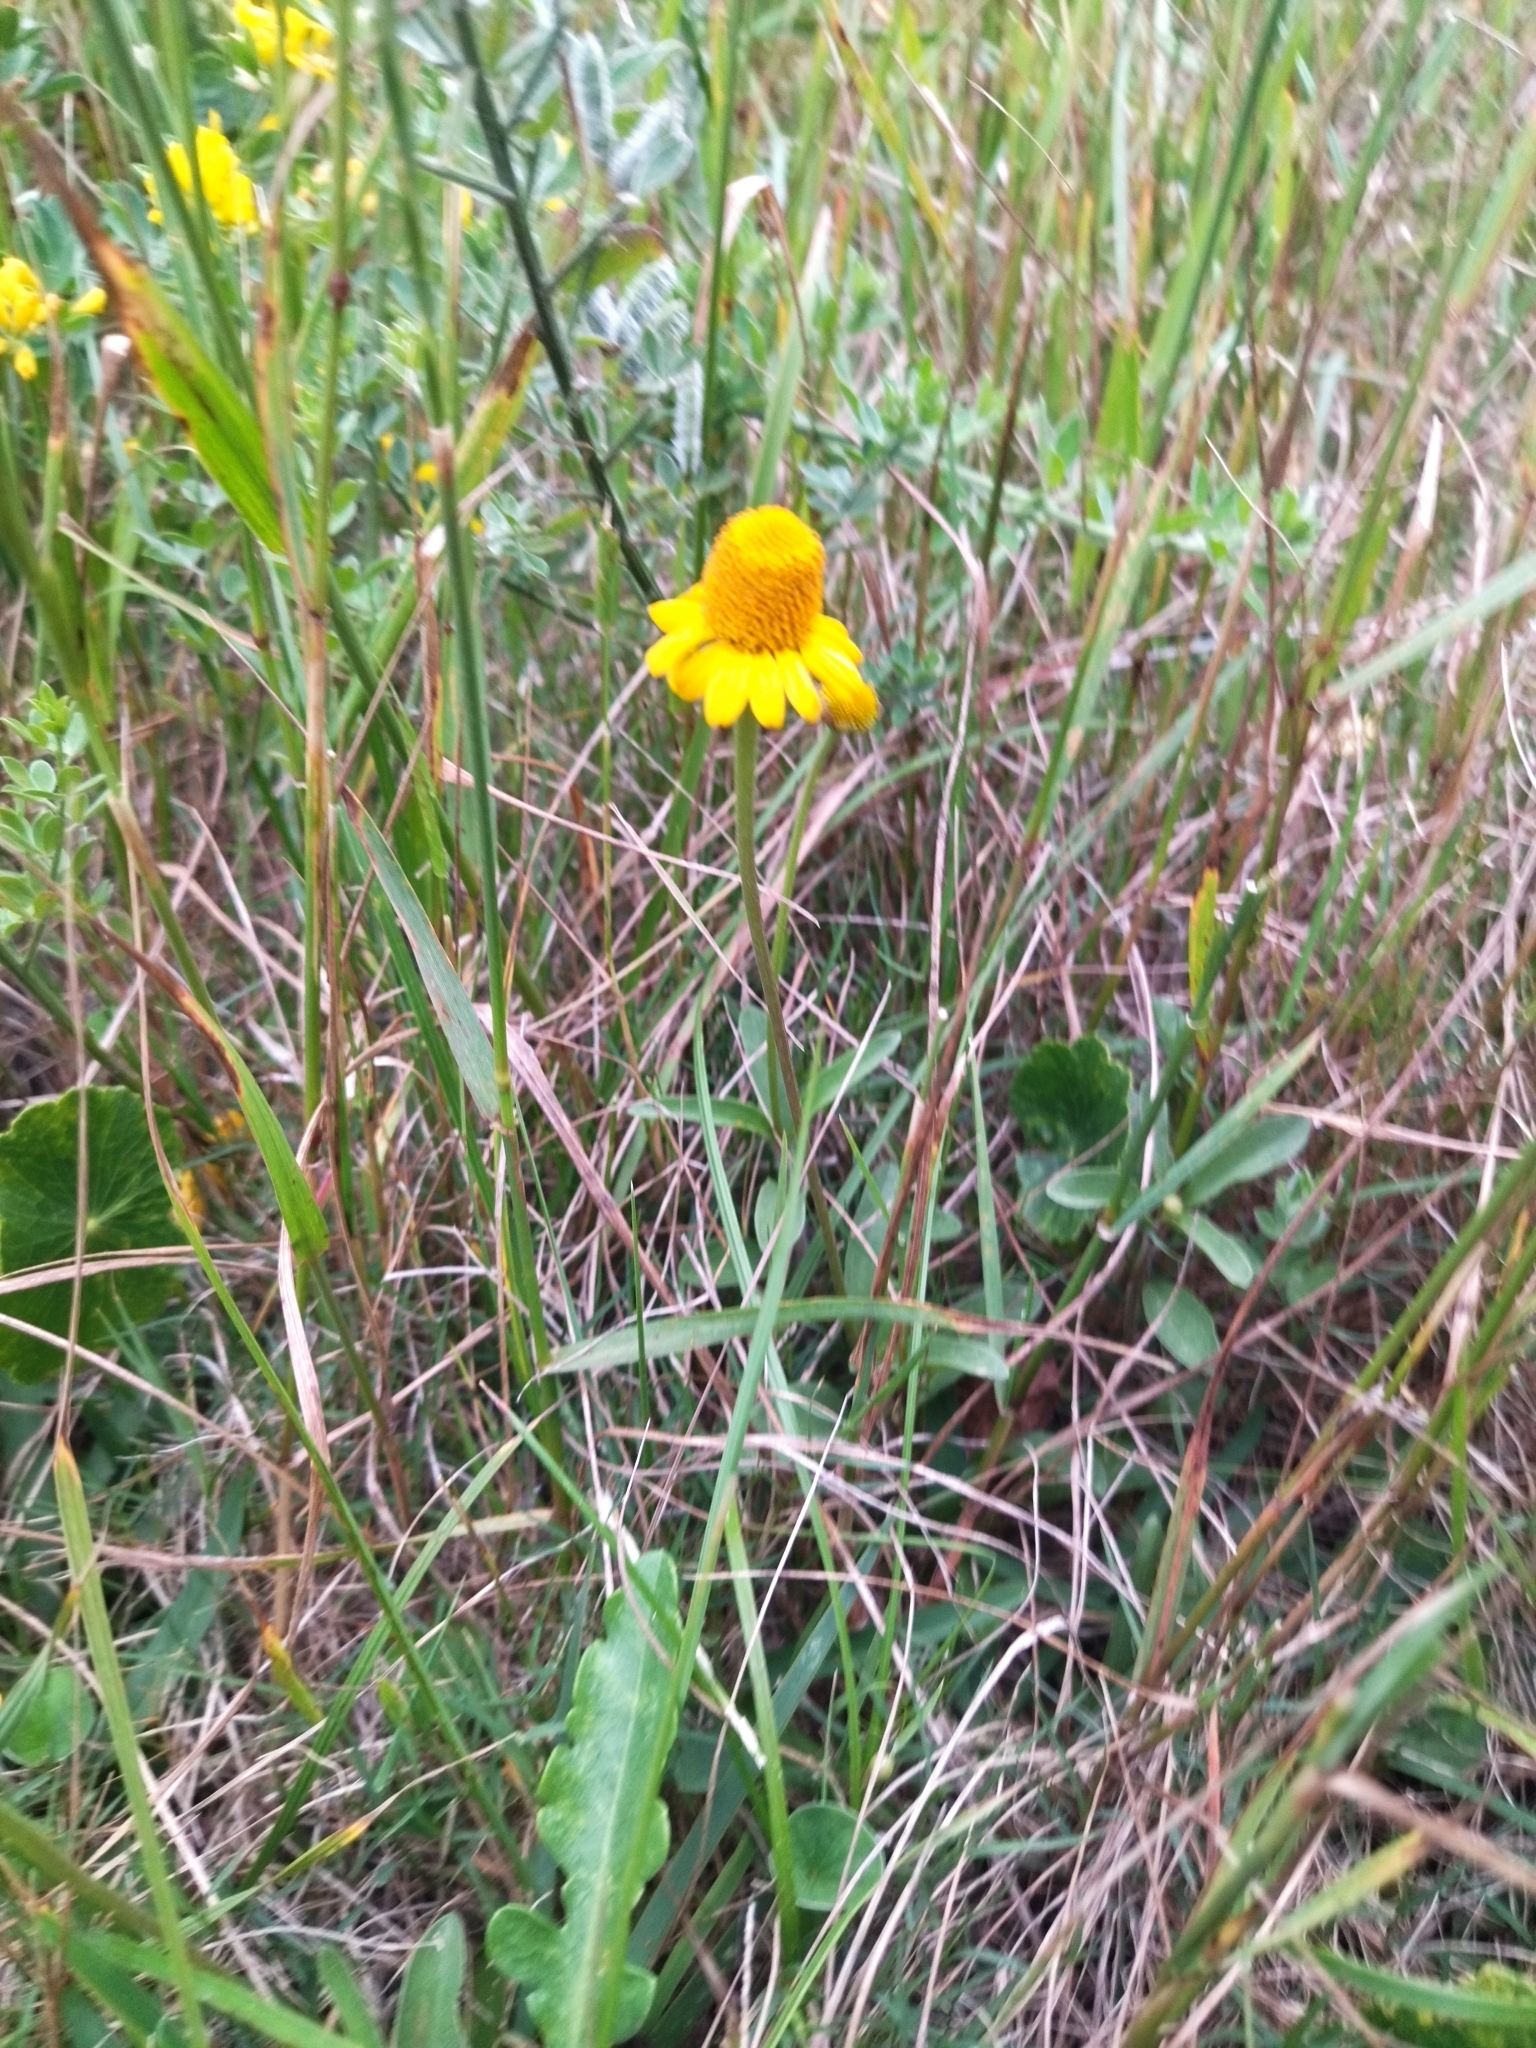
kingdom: Plantae
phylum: Tracheophyta
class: Magnoliopsida
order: Asterales
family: Asteraceae
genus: Acmella
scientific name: Acmella decumbens
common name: Creeping spotflower
